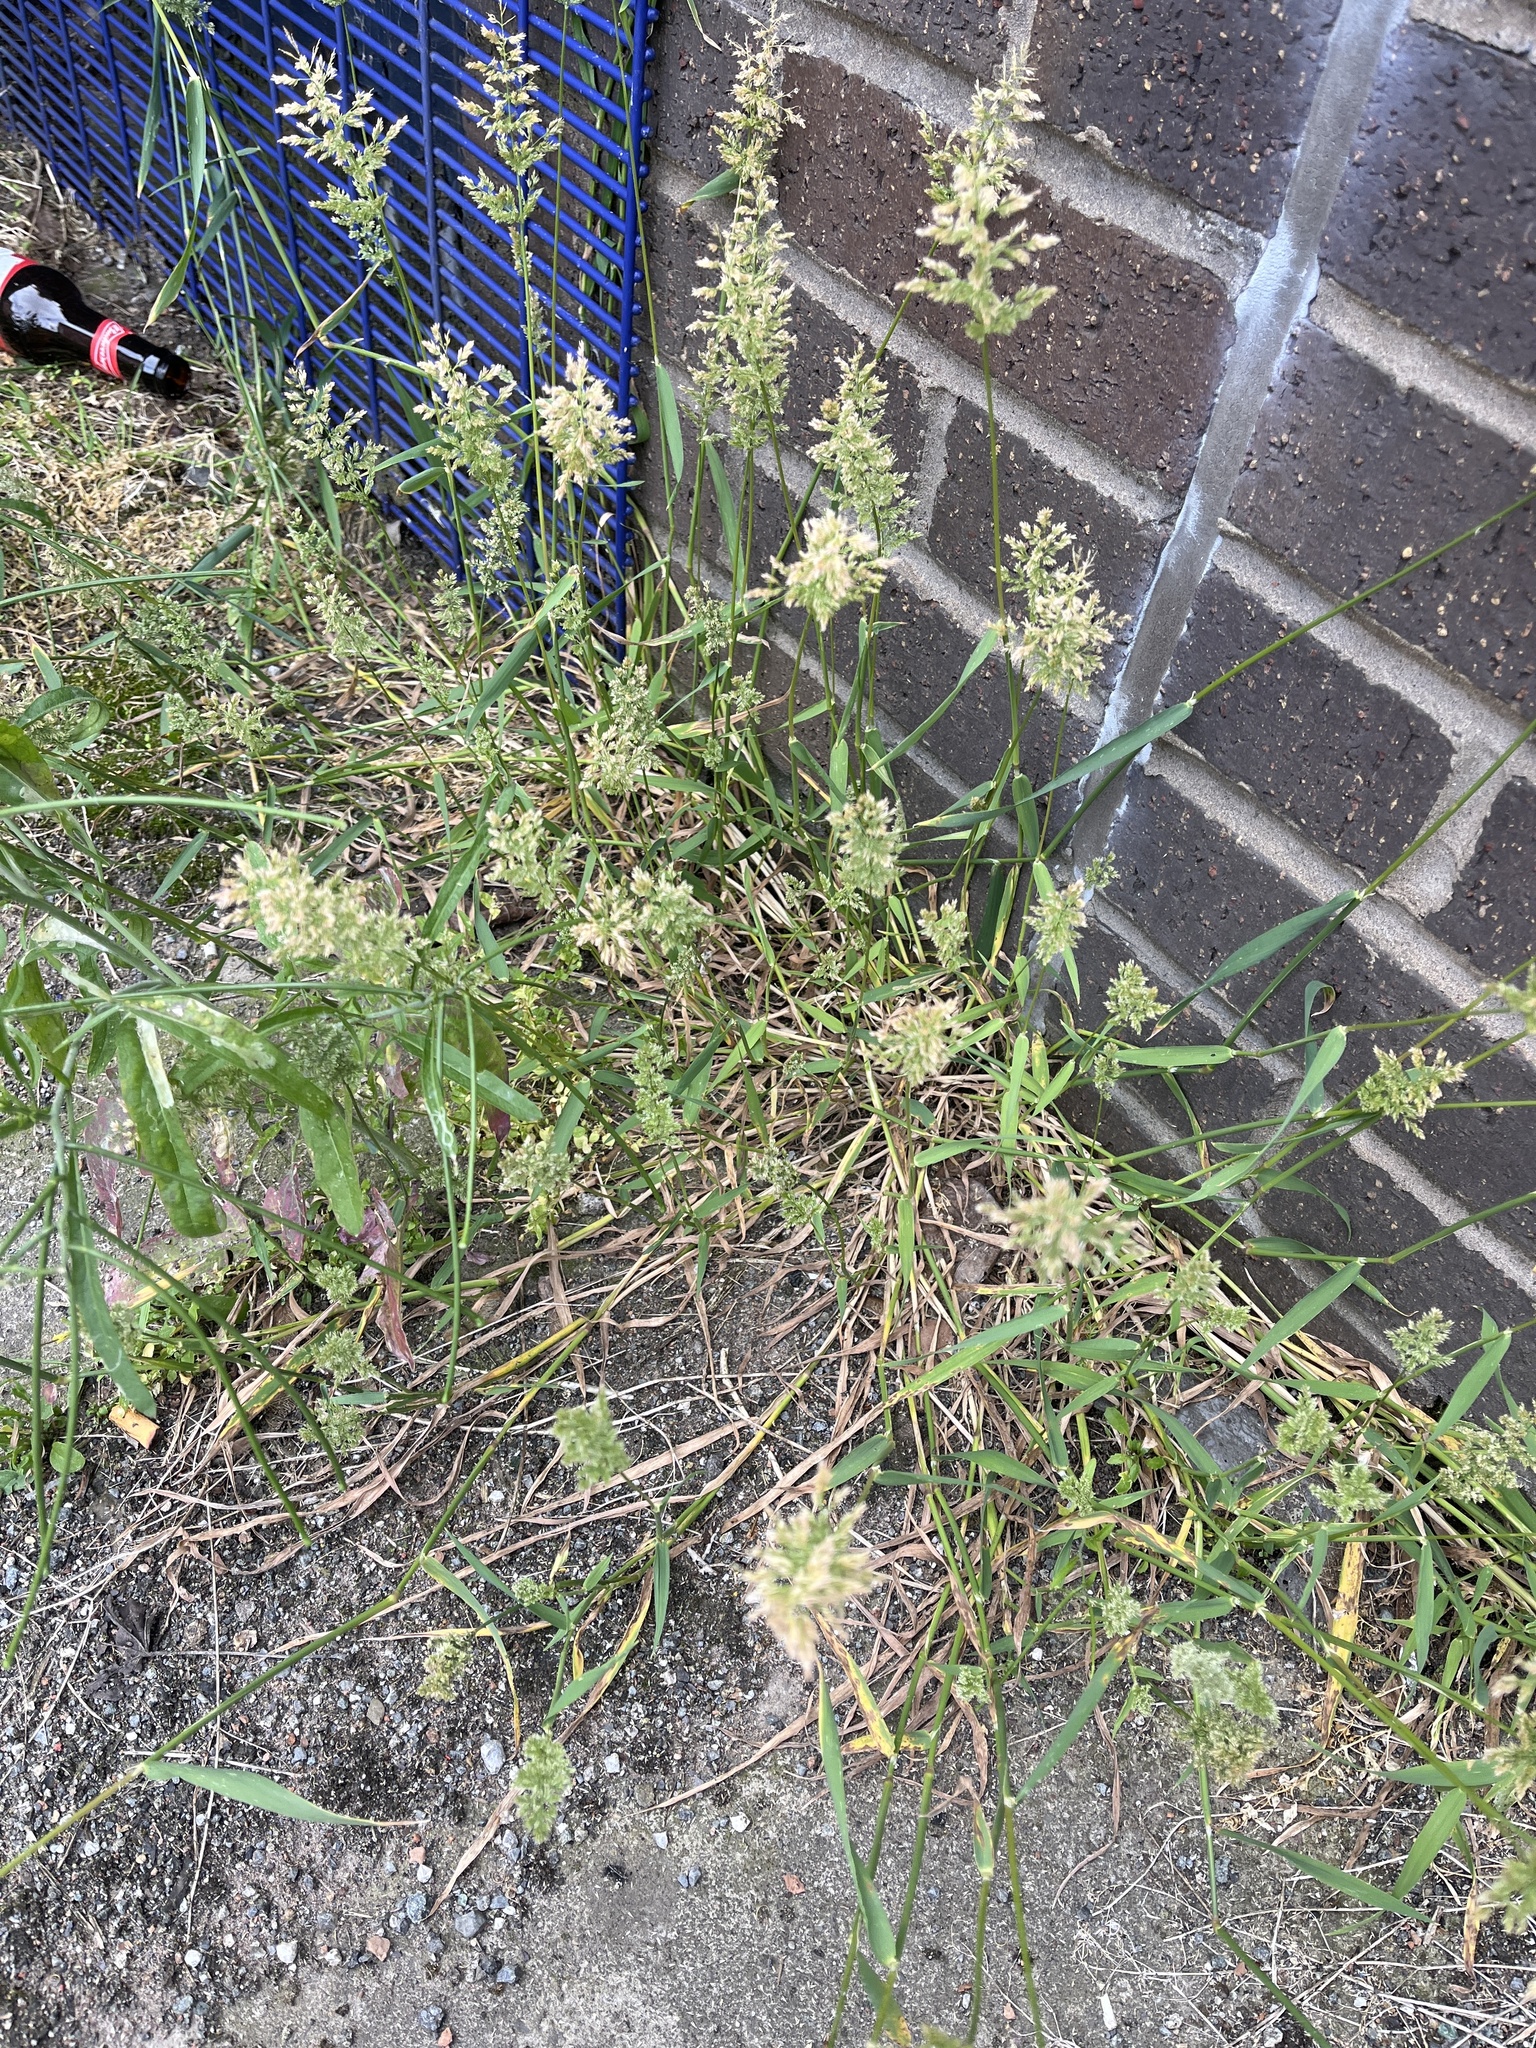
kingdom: Plantae
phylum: Tracheophyta
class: Liliopsida
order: Poales
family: Poaceae
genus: Polypogon
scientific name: Polypogon viridis
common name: Water bent
